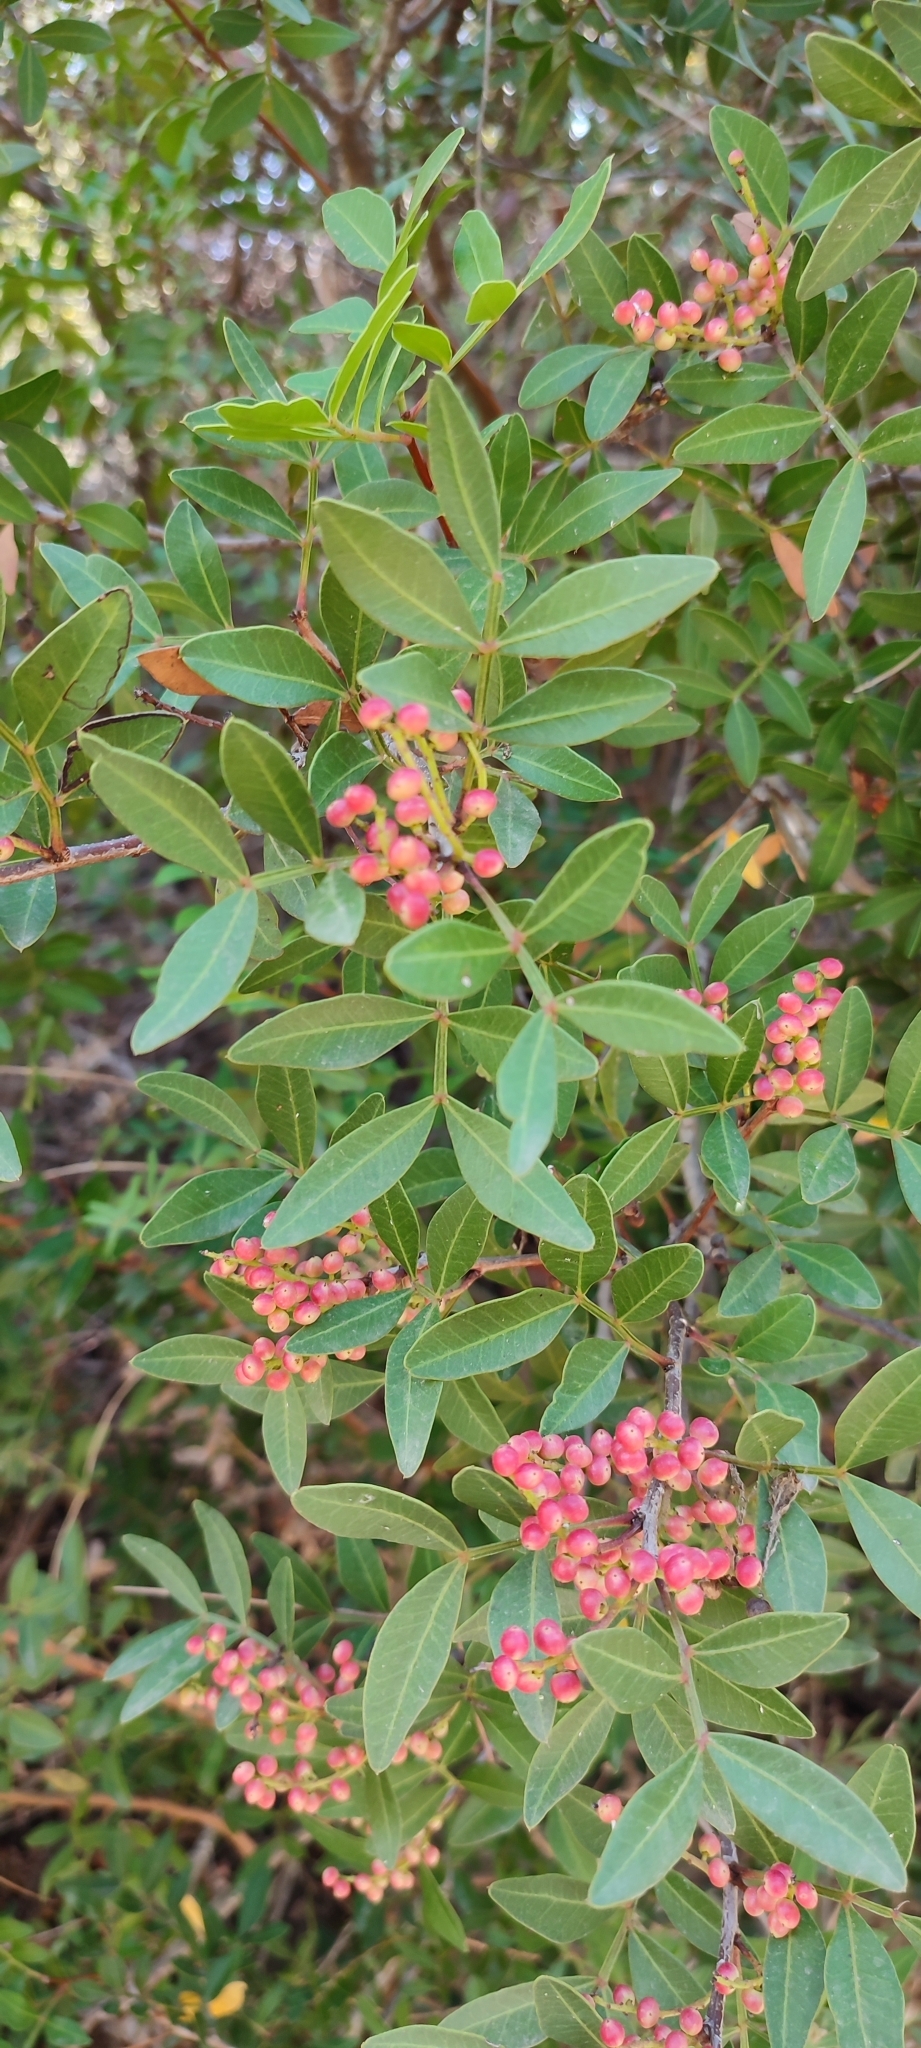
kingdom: Plantae
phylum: Tracheophyta
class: Magnoliopsida
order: Sapindales
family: Anacardiaceae
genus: Pistacia
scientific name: Pistacia lentiscus
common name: Lentisk
